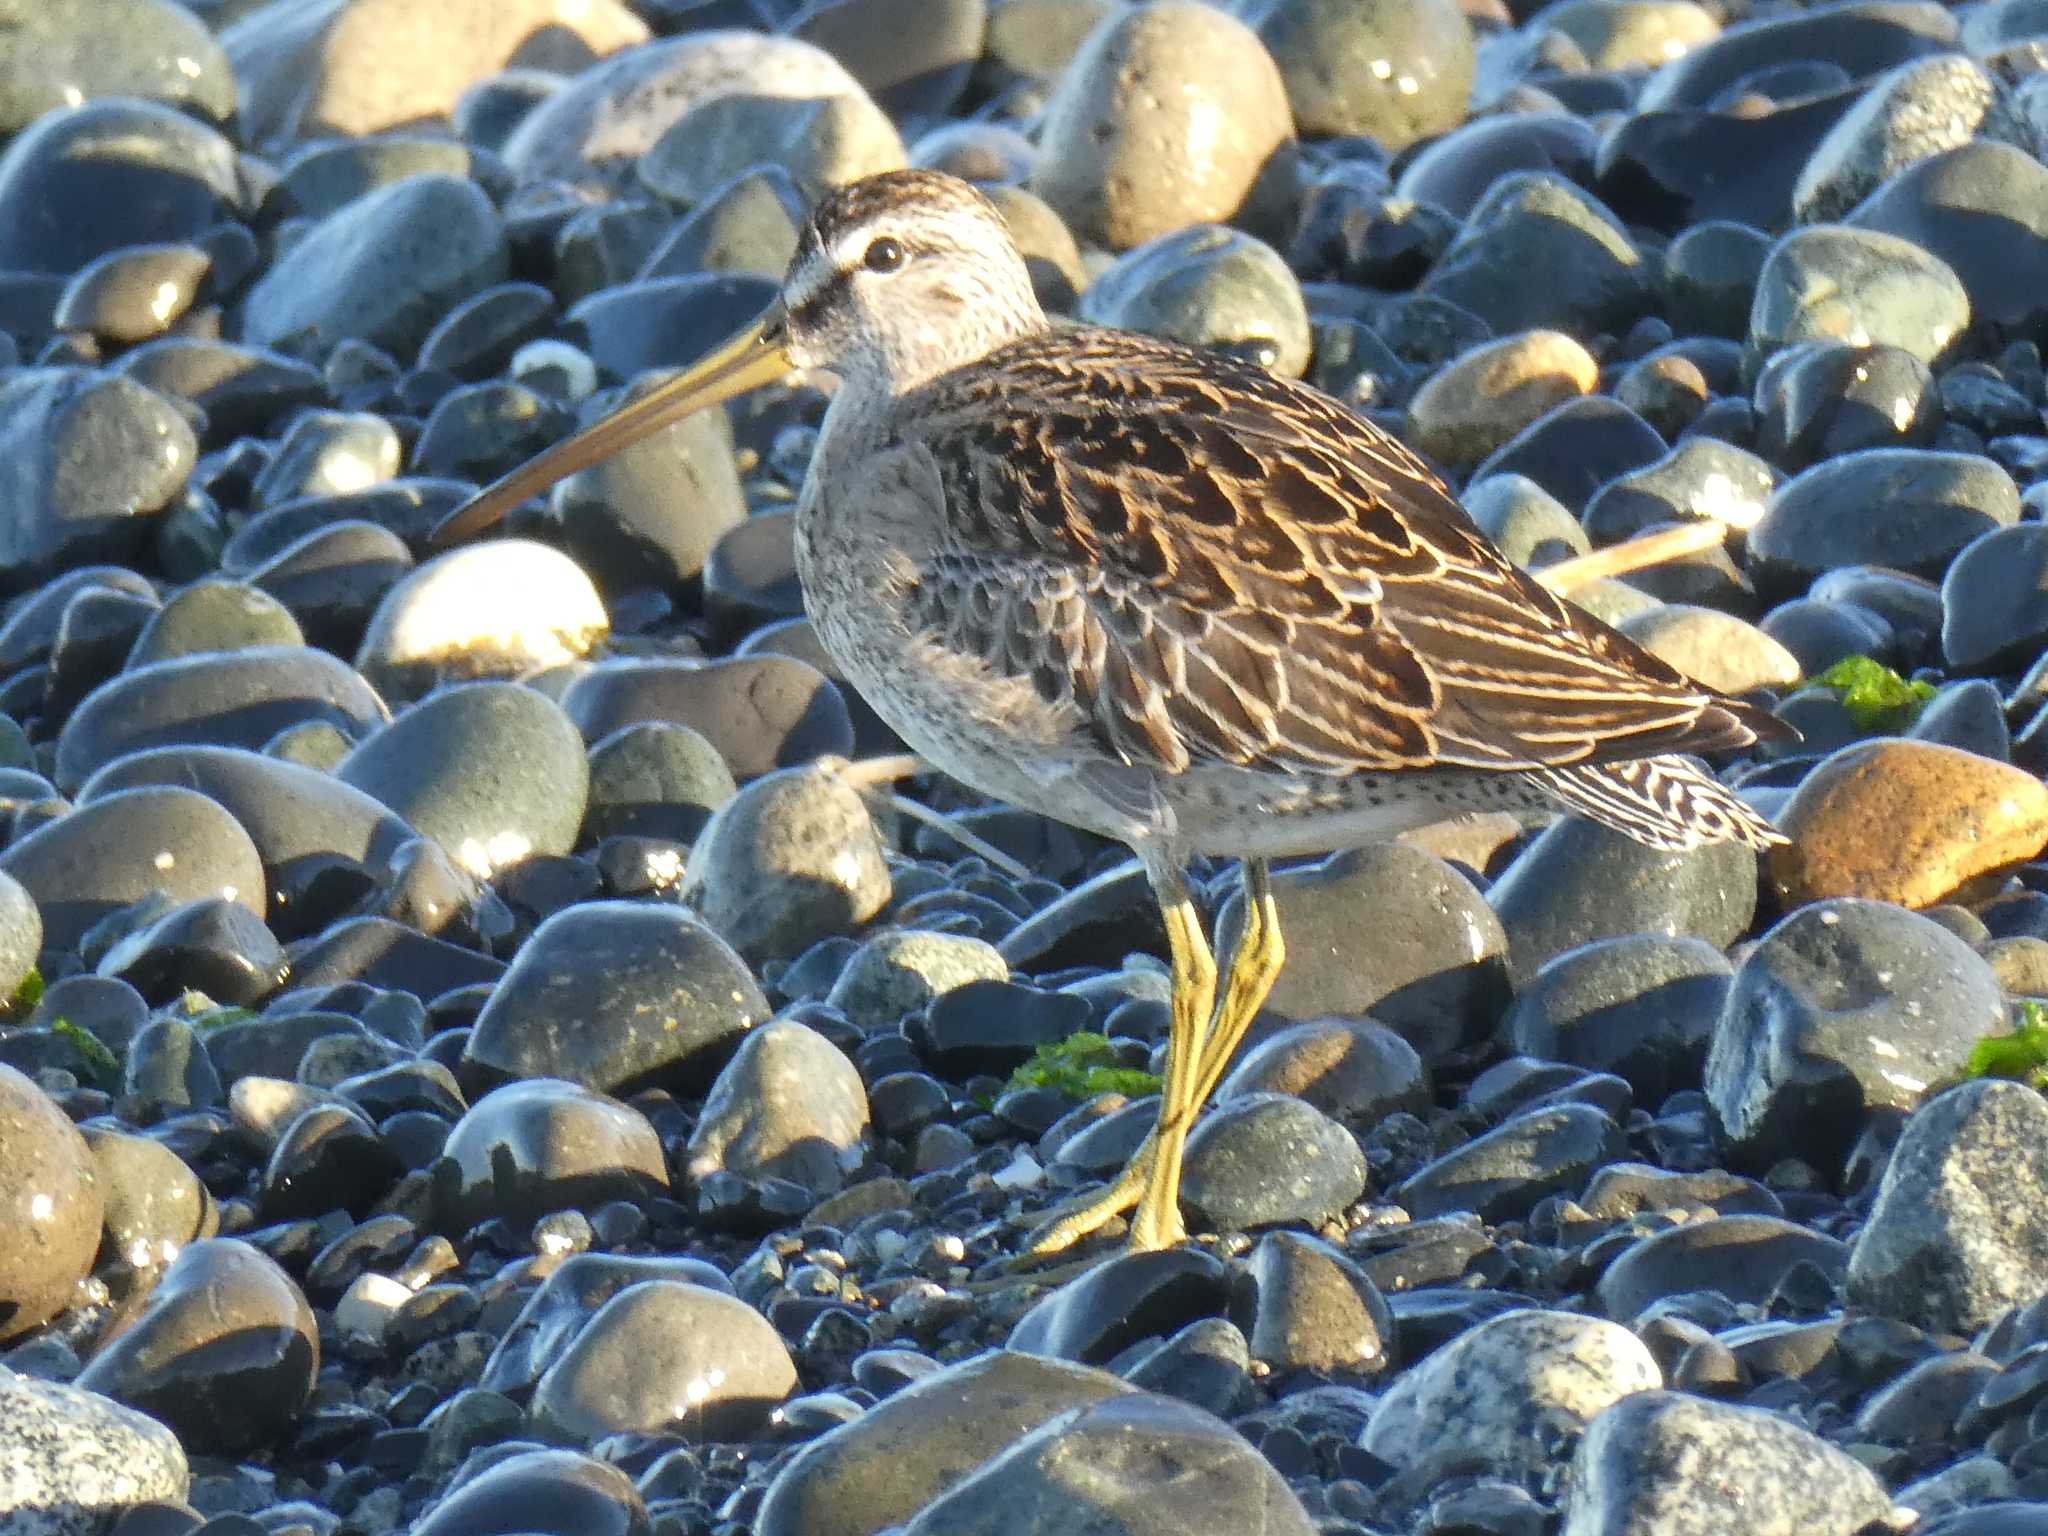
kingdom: Animalia
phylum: Chordata
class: Aves
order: Charadriiformes
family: Scolopacidae
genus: Limnodromus
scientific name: Limnodromus griseus
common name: Short-billed dowitcher
